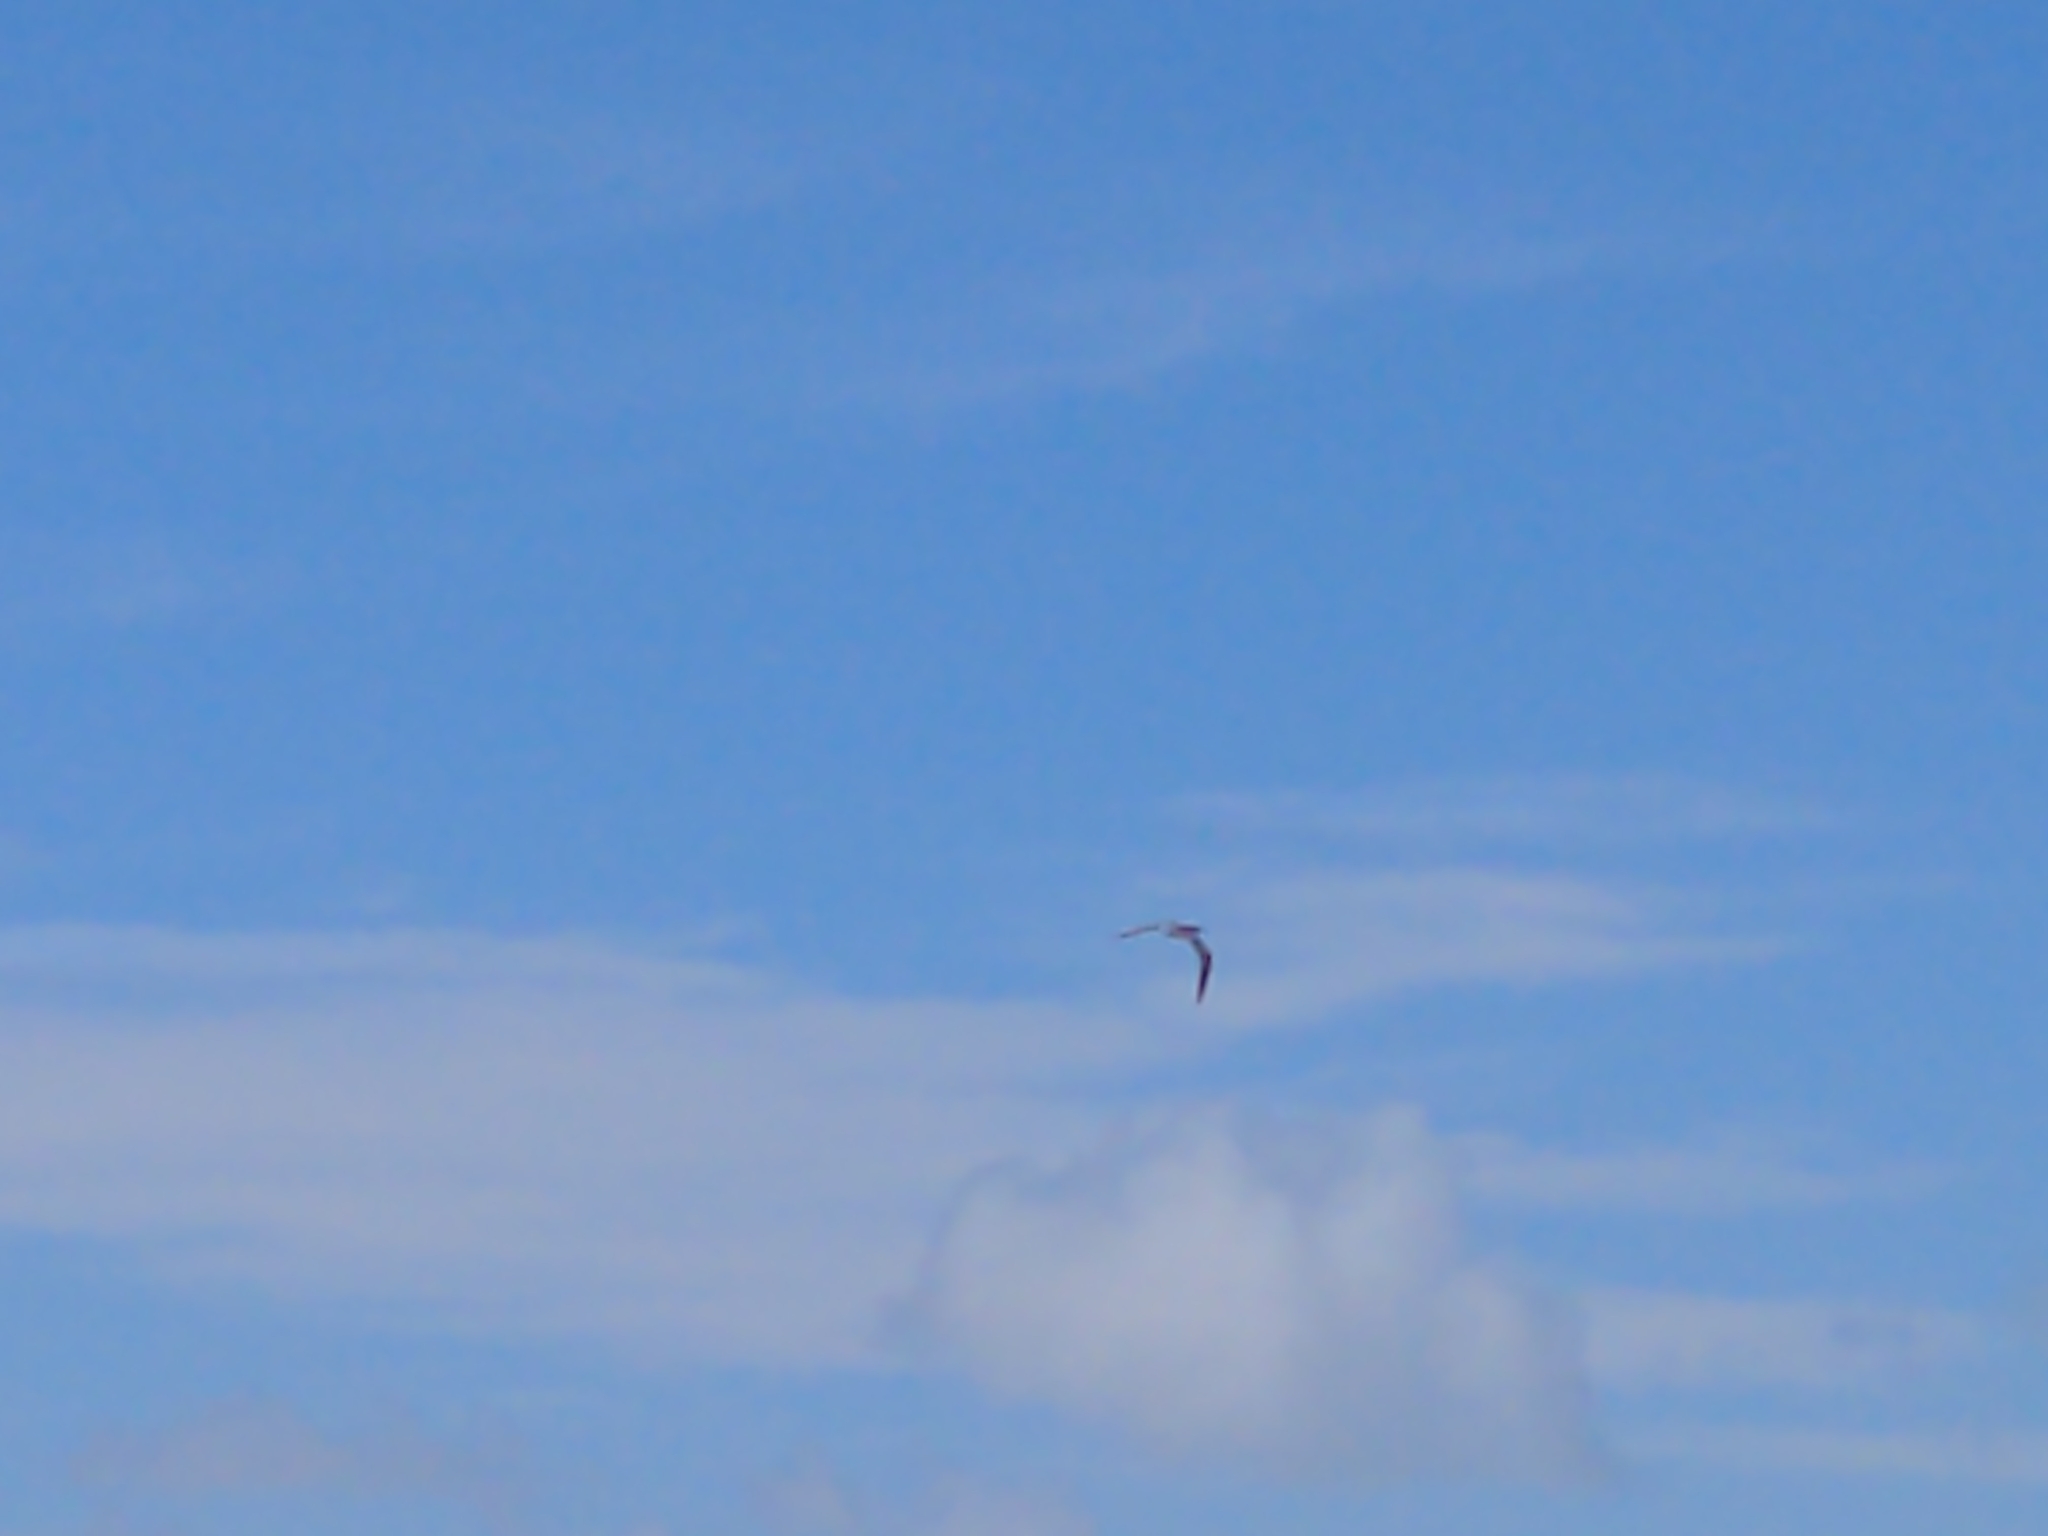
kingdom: Animalia
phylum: Chordata
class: Aves
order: Charadriiformes
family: Laridae
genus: Thalasseus
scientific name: Thalasseus bergii
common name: Greater crested tern
